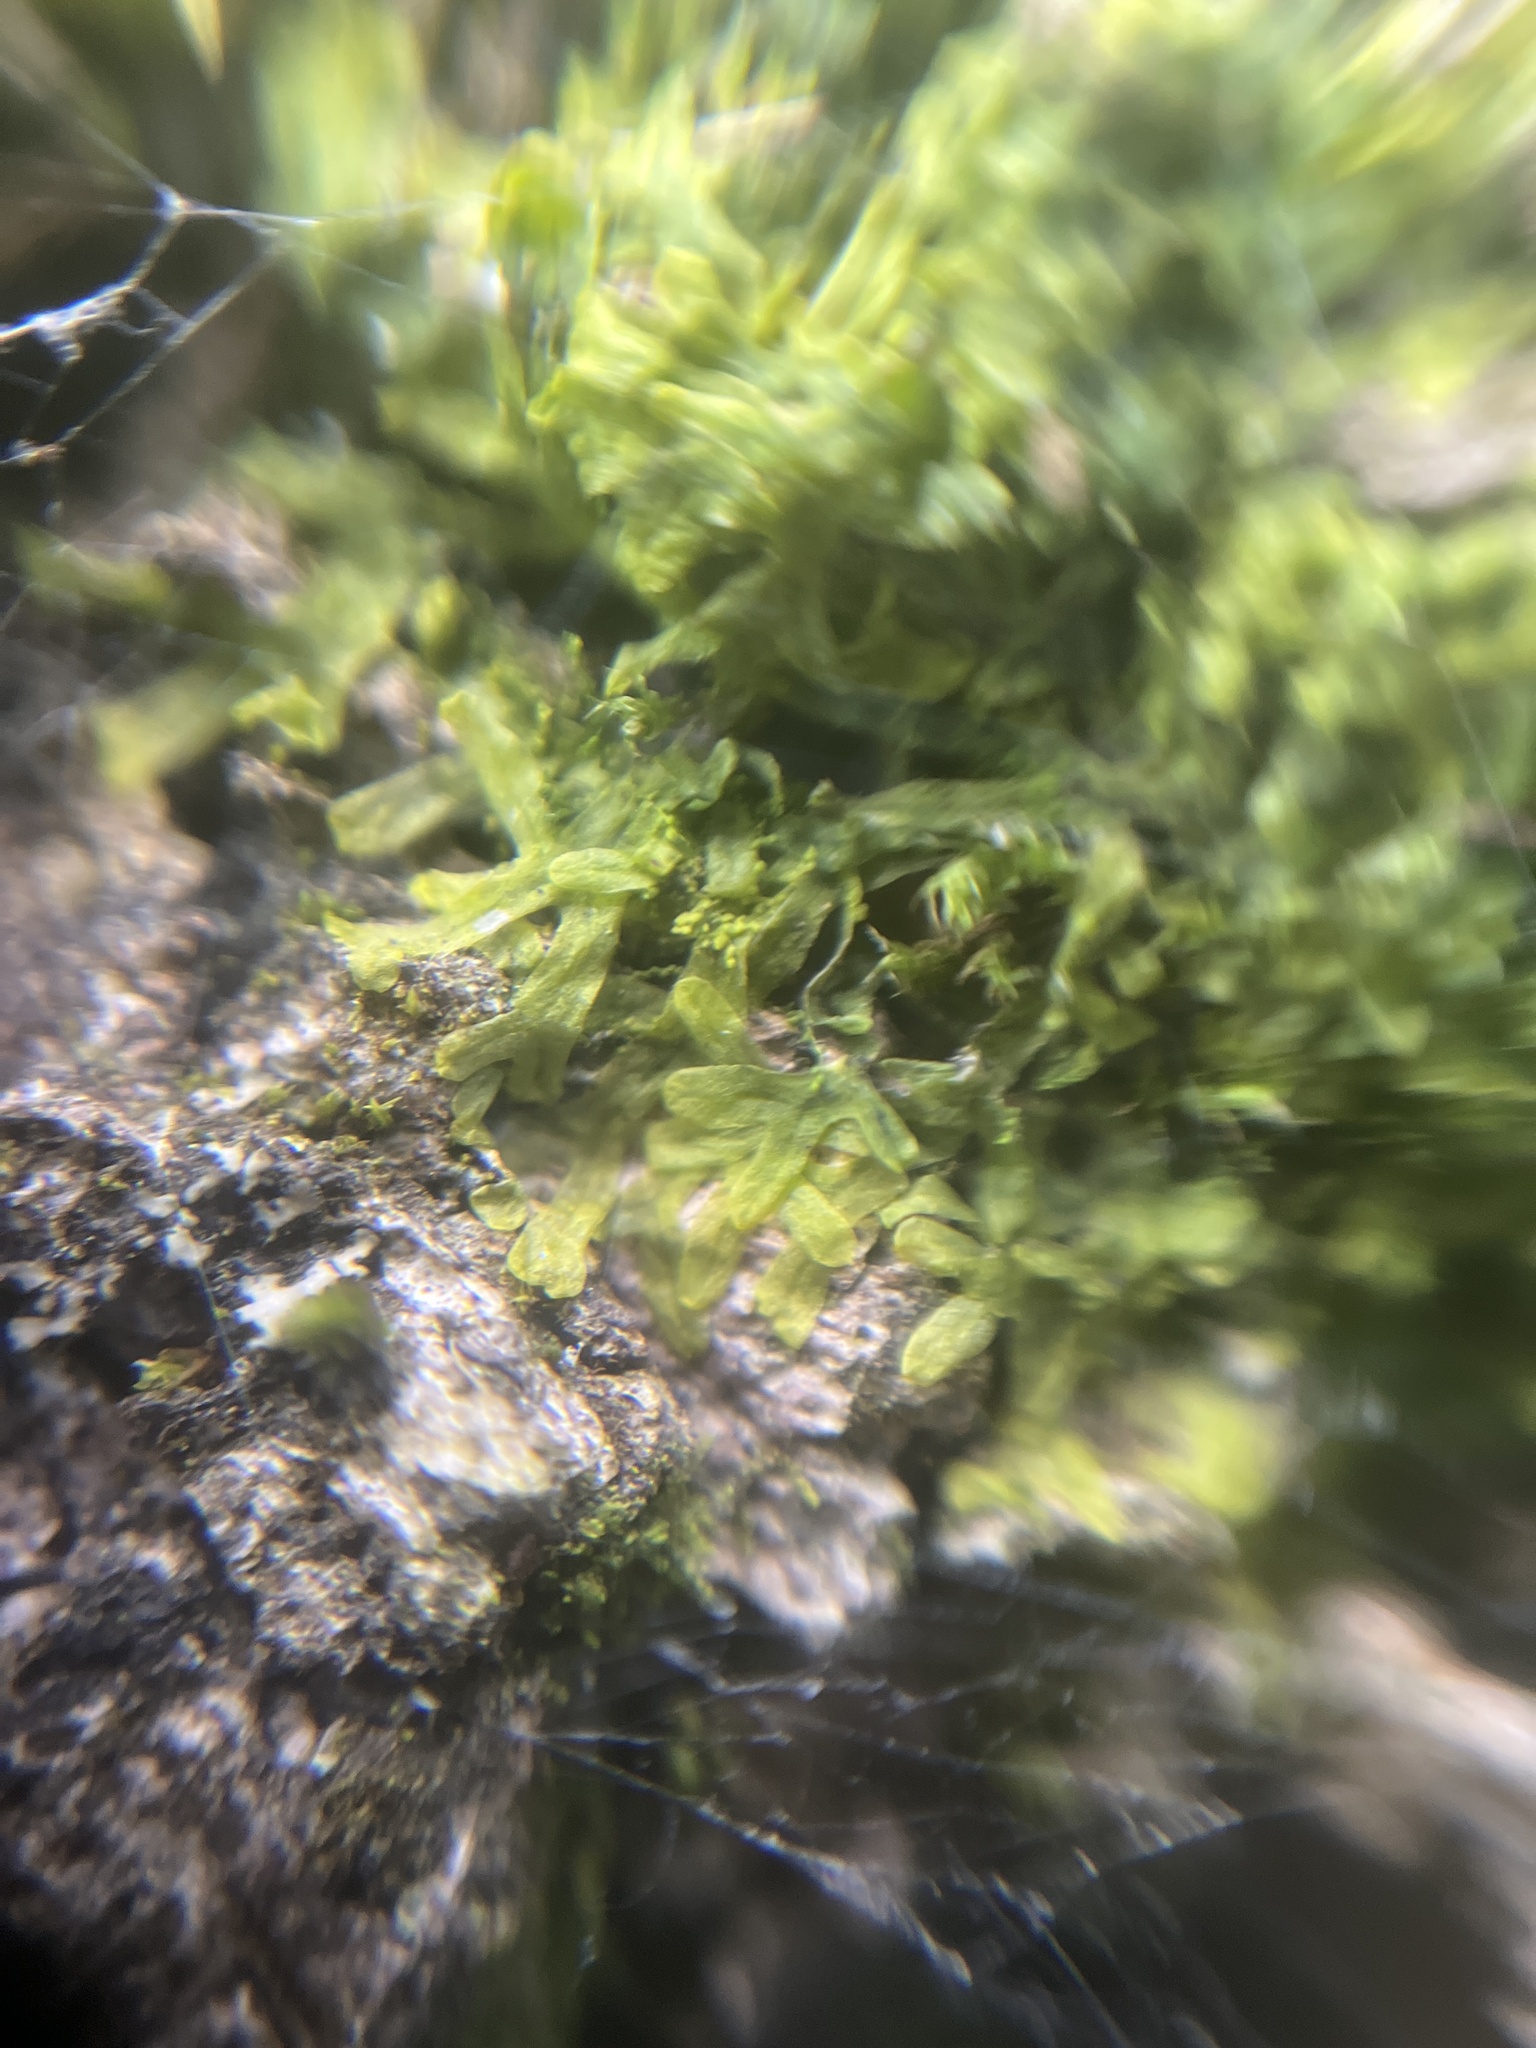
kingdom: Plantae
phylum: Marchantiophyta
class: Jungermanniopsida
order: Metzgeriales
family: Metzgeriaceae
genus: Metzgeria
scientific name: Metzgeria furcata
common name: Forked veilwort
